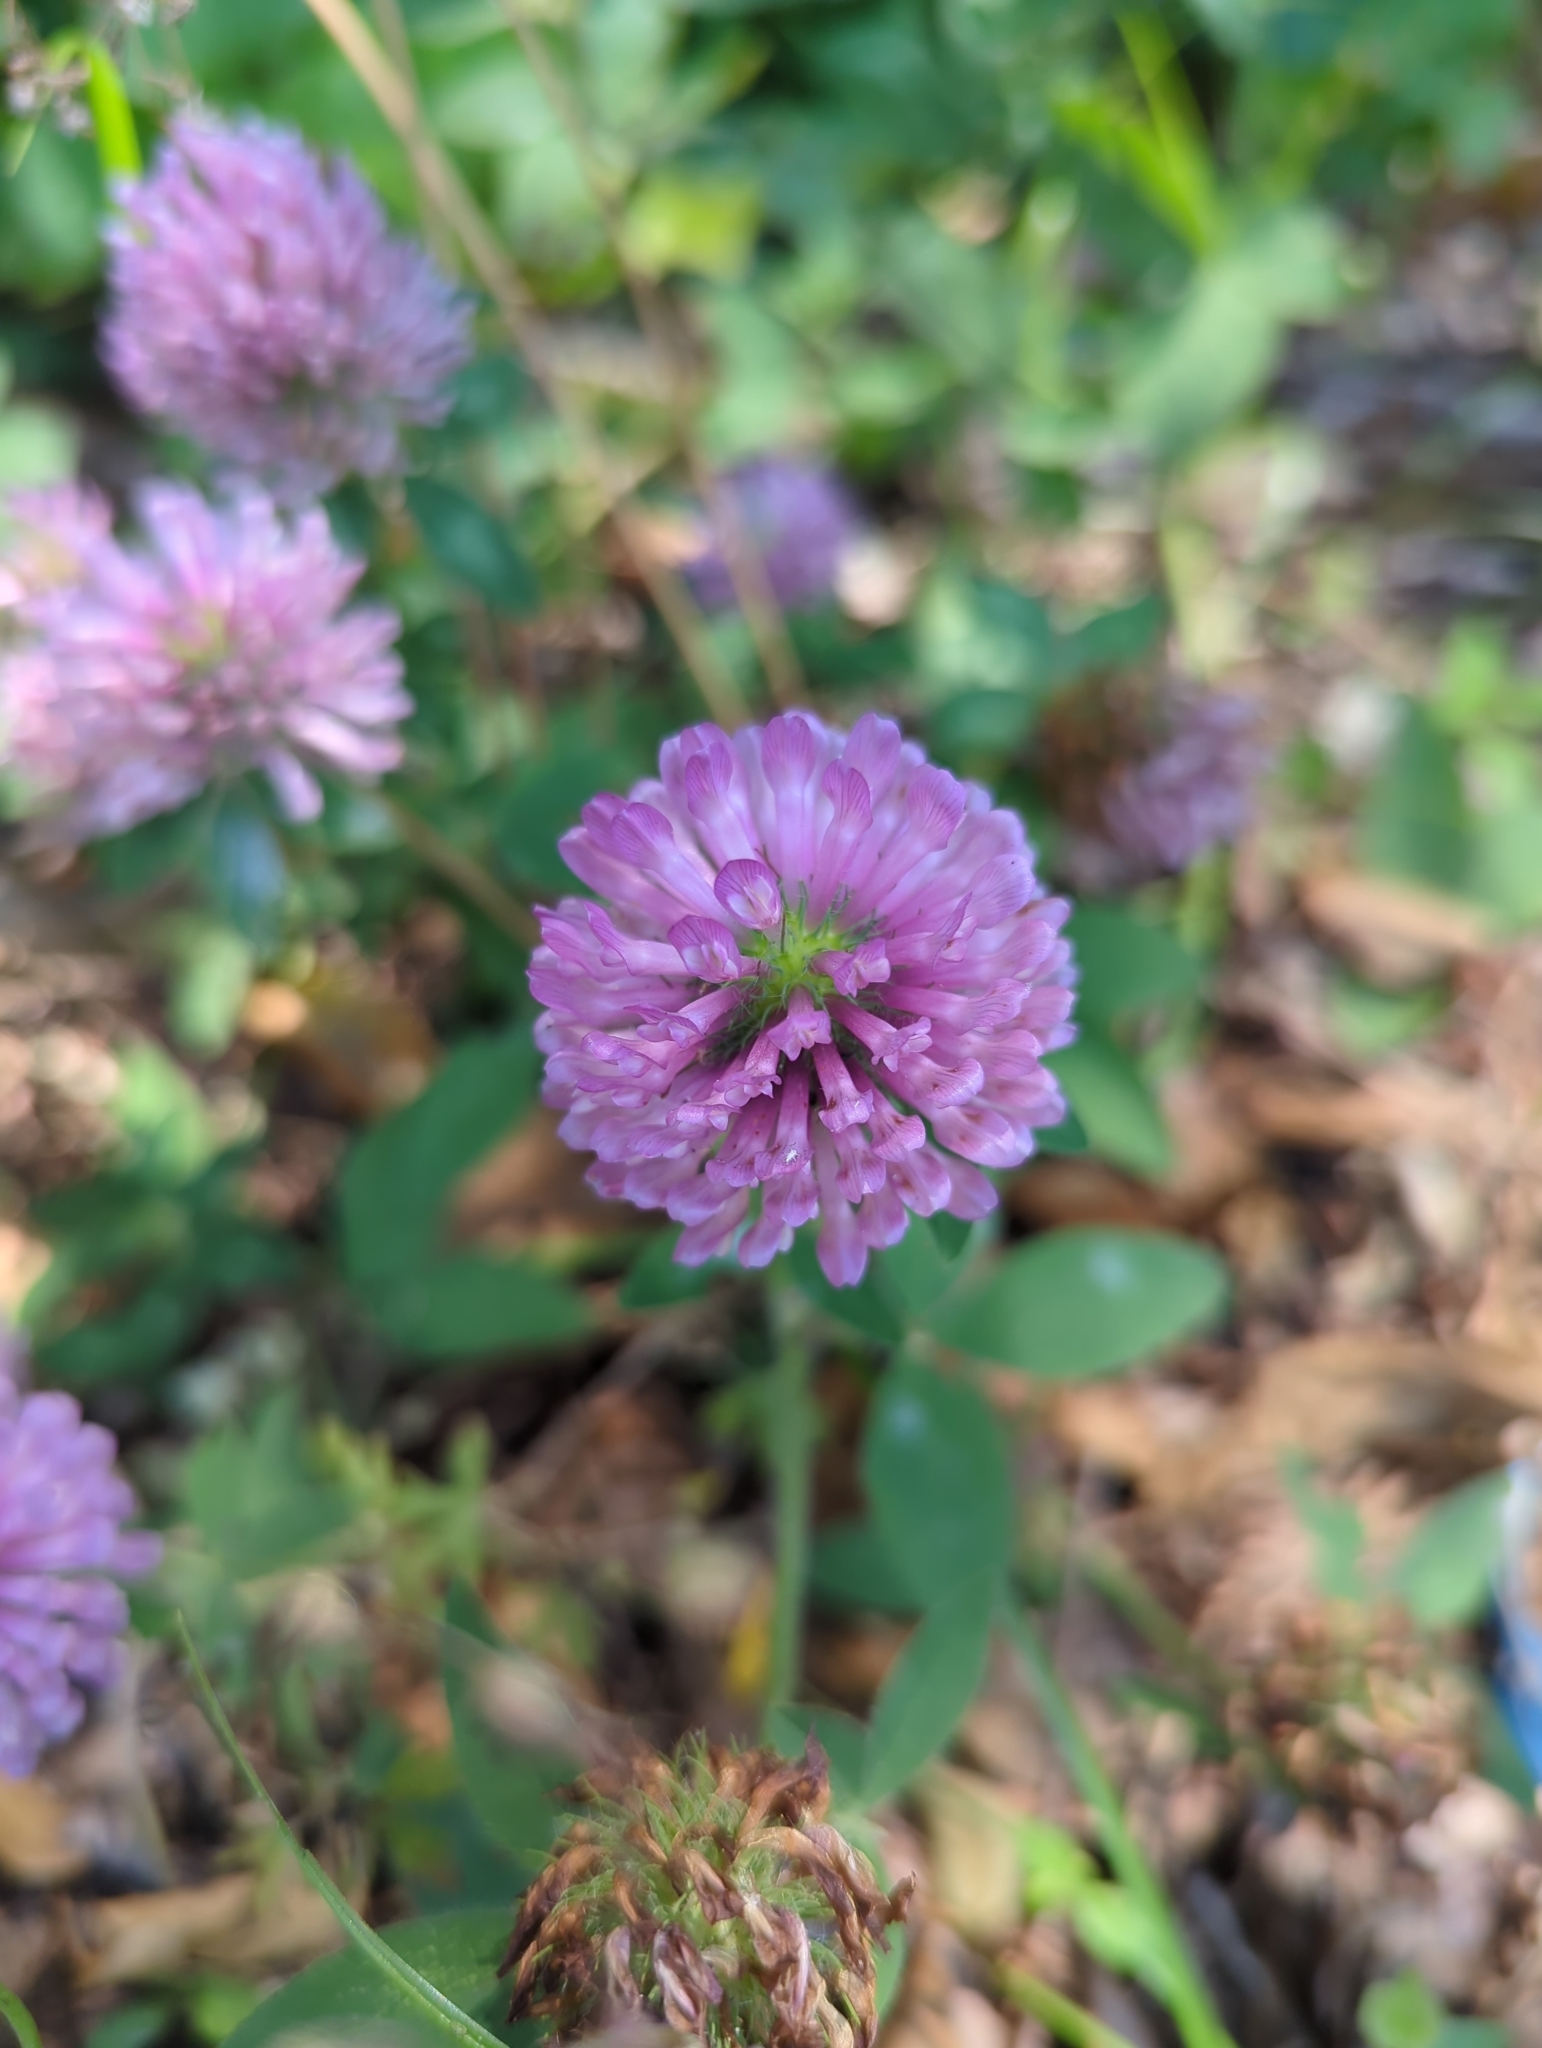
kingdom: Plantae
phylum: Tracheophyta
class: Magnoliopsida
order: Fabales
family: Fabaceae
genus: Trifolium
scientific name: Trifolium pratense
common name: Red clover
